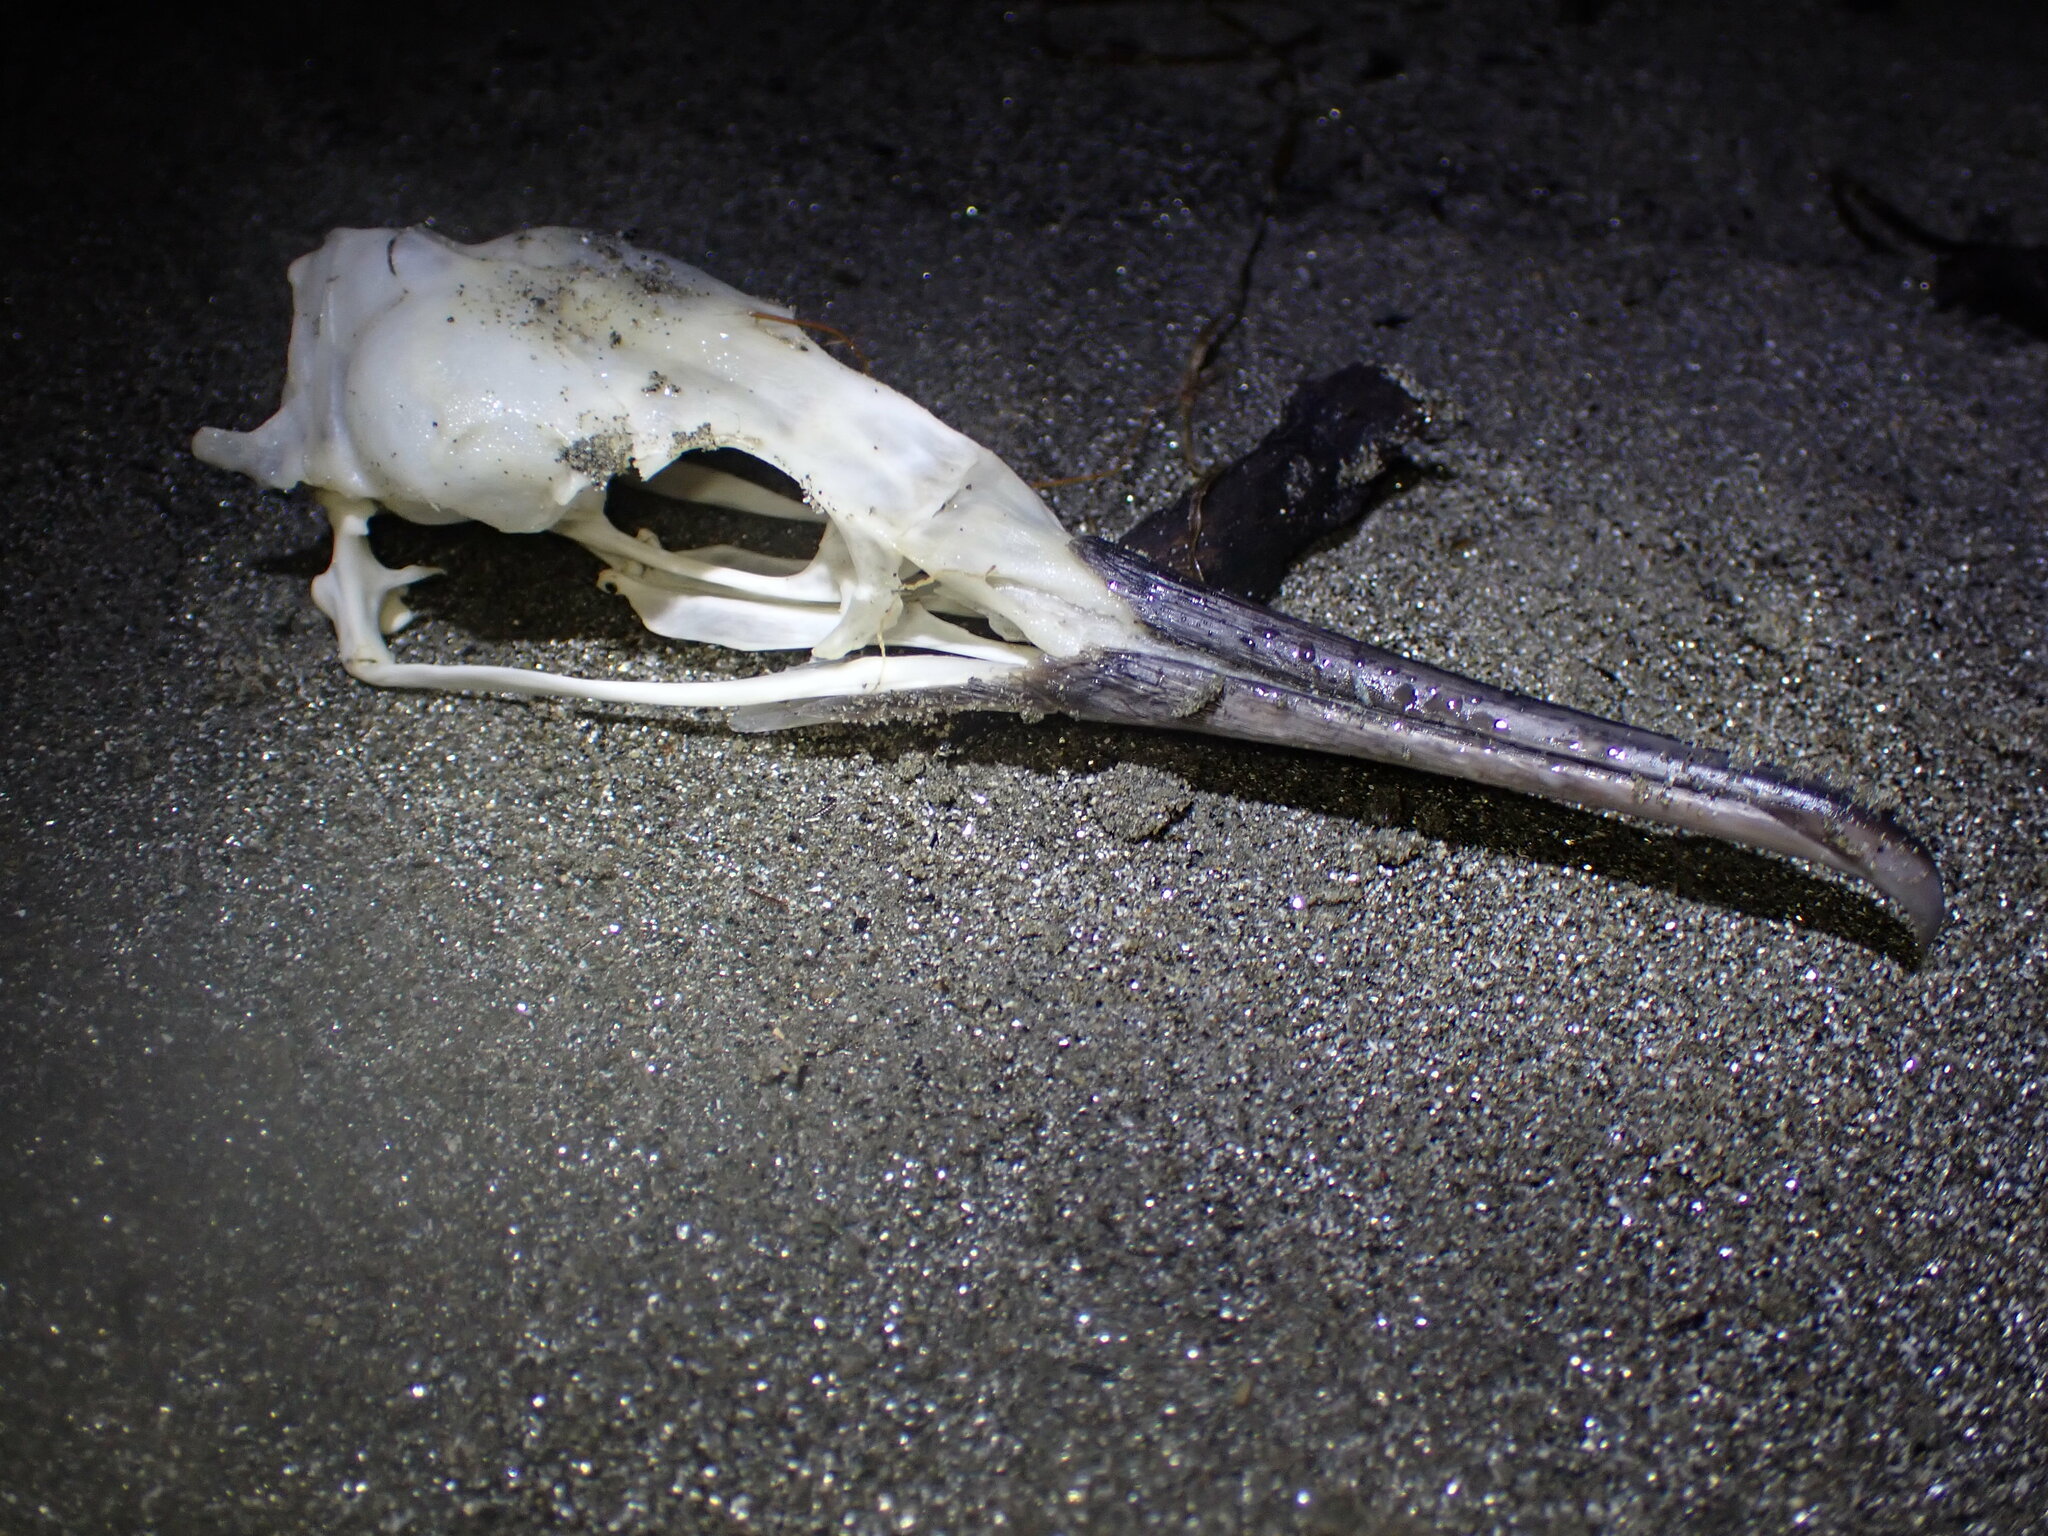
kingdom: Animalia
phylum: Chordata
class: Aves
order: Suliformes
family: Phalacrocoracidae
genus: Phalacrocorax
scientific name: Phalacrocorax pelagicus
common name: Pelagic cormorant
